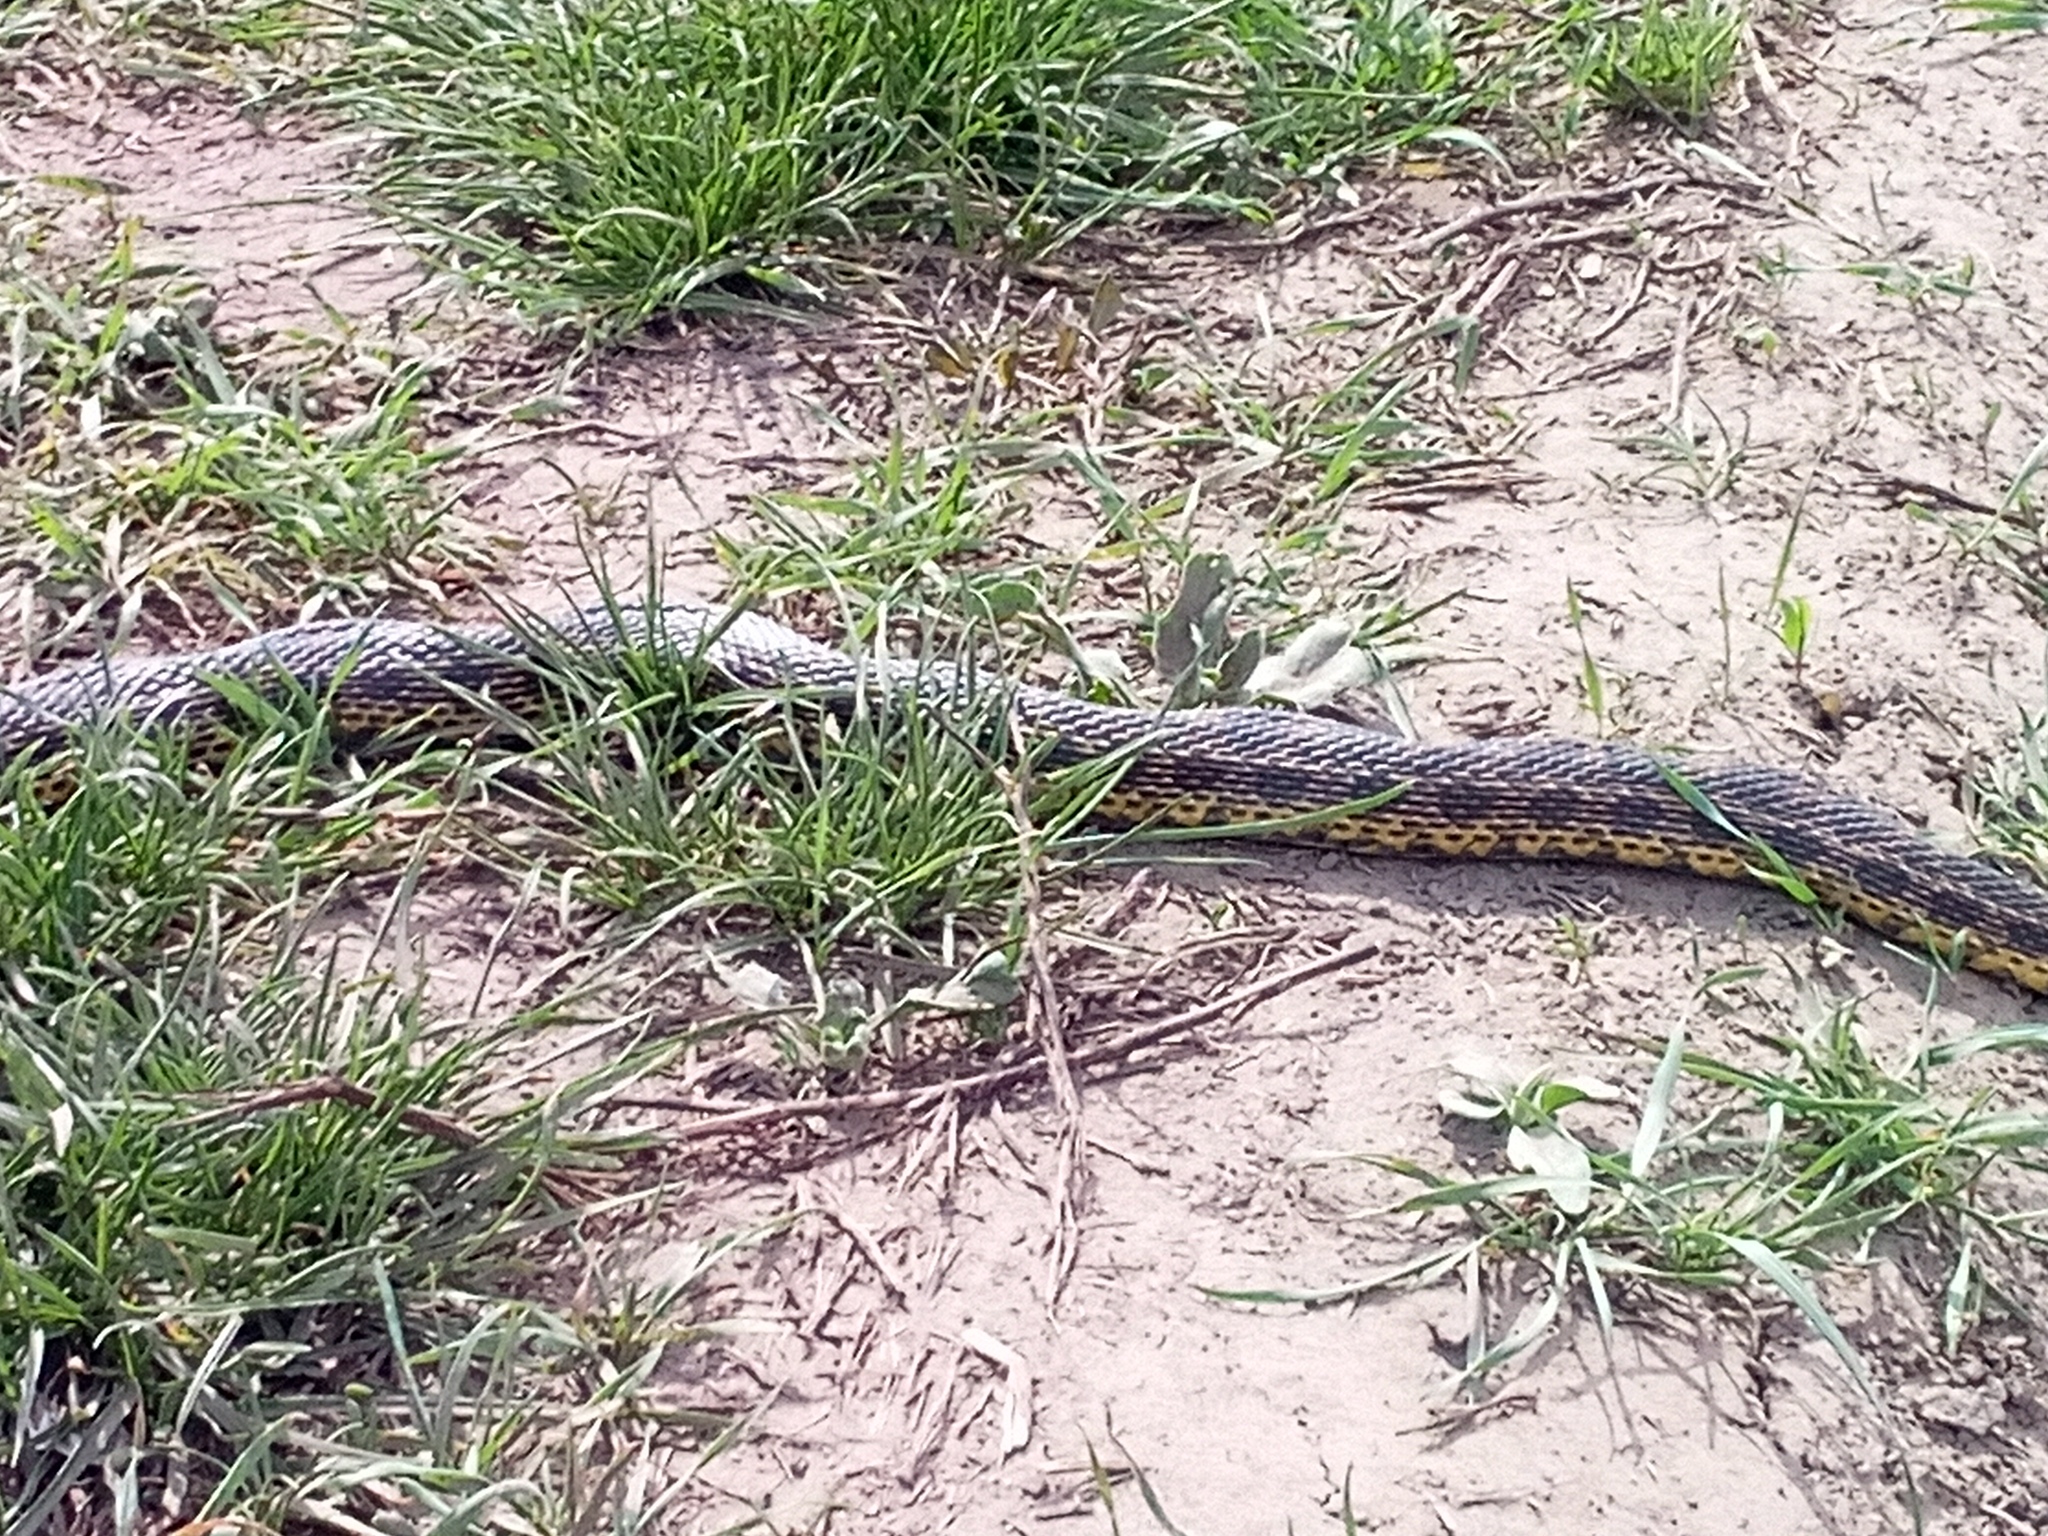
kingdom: Animalia
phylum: Chordata
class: Squamata
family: Colubridae
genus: Elaphe
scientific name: Elaphe sauromates
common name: Eastern four-lined ratsnake
